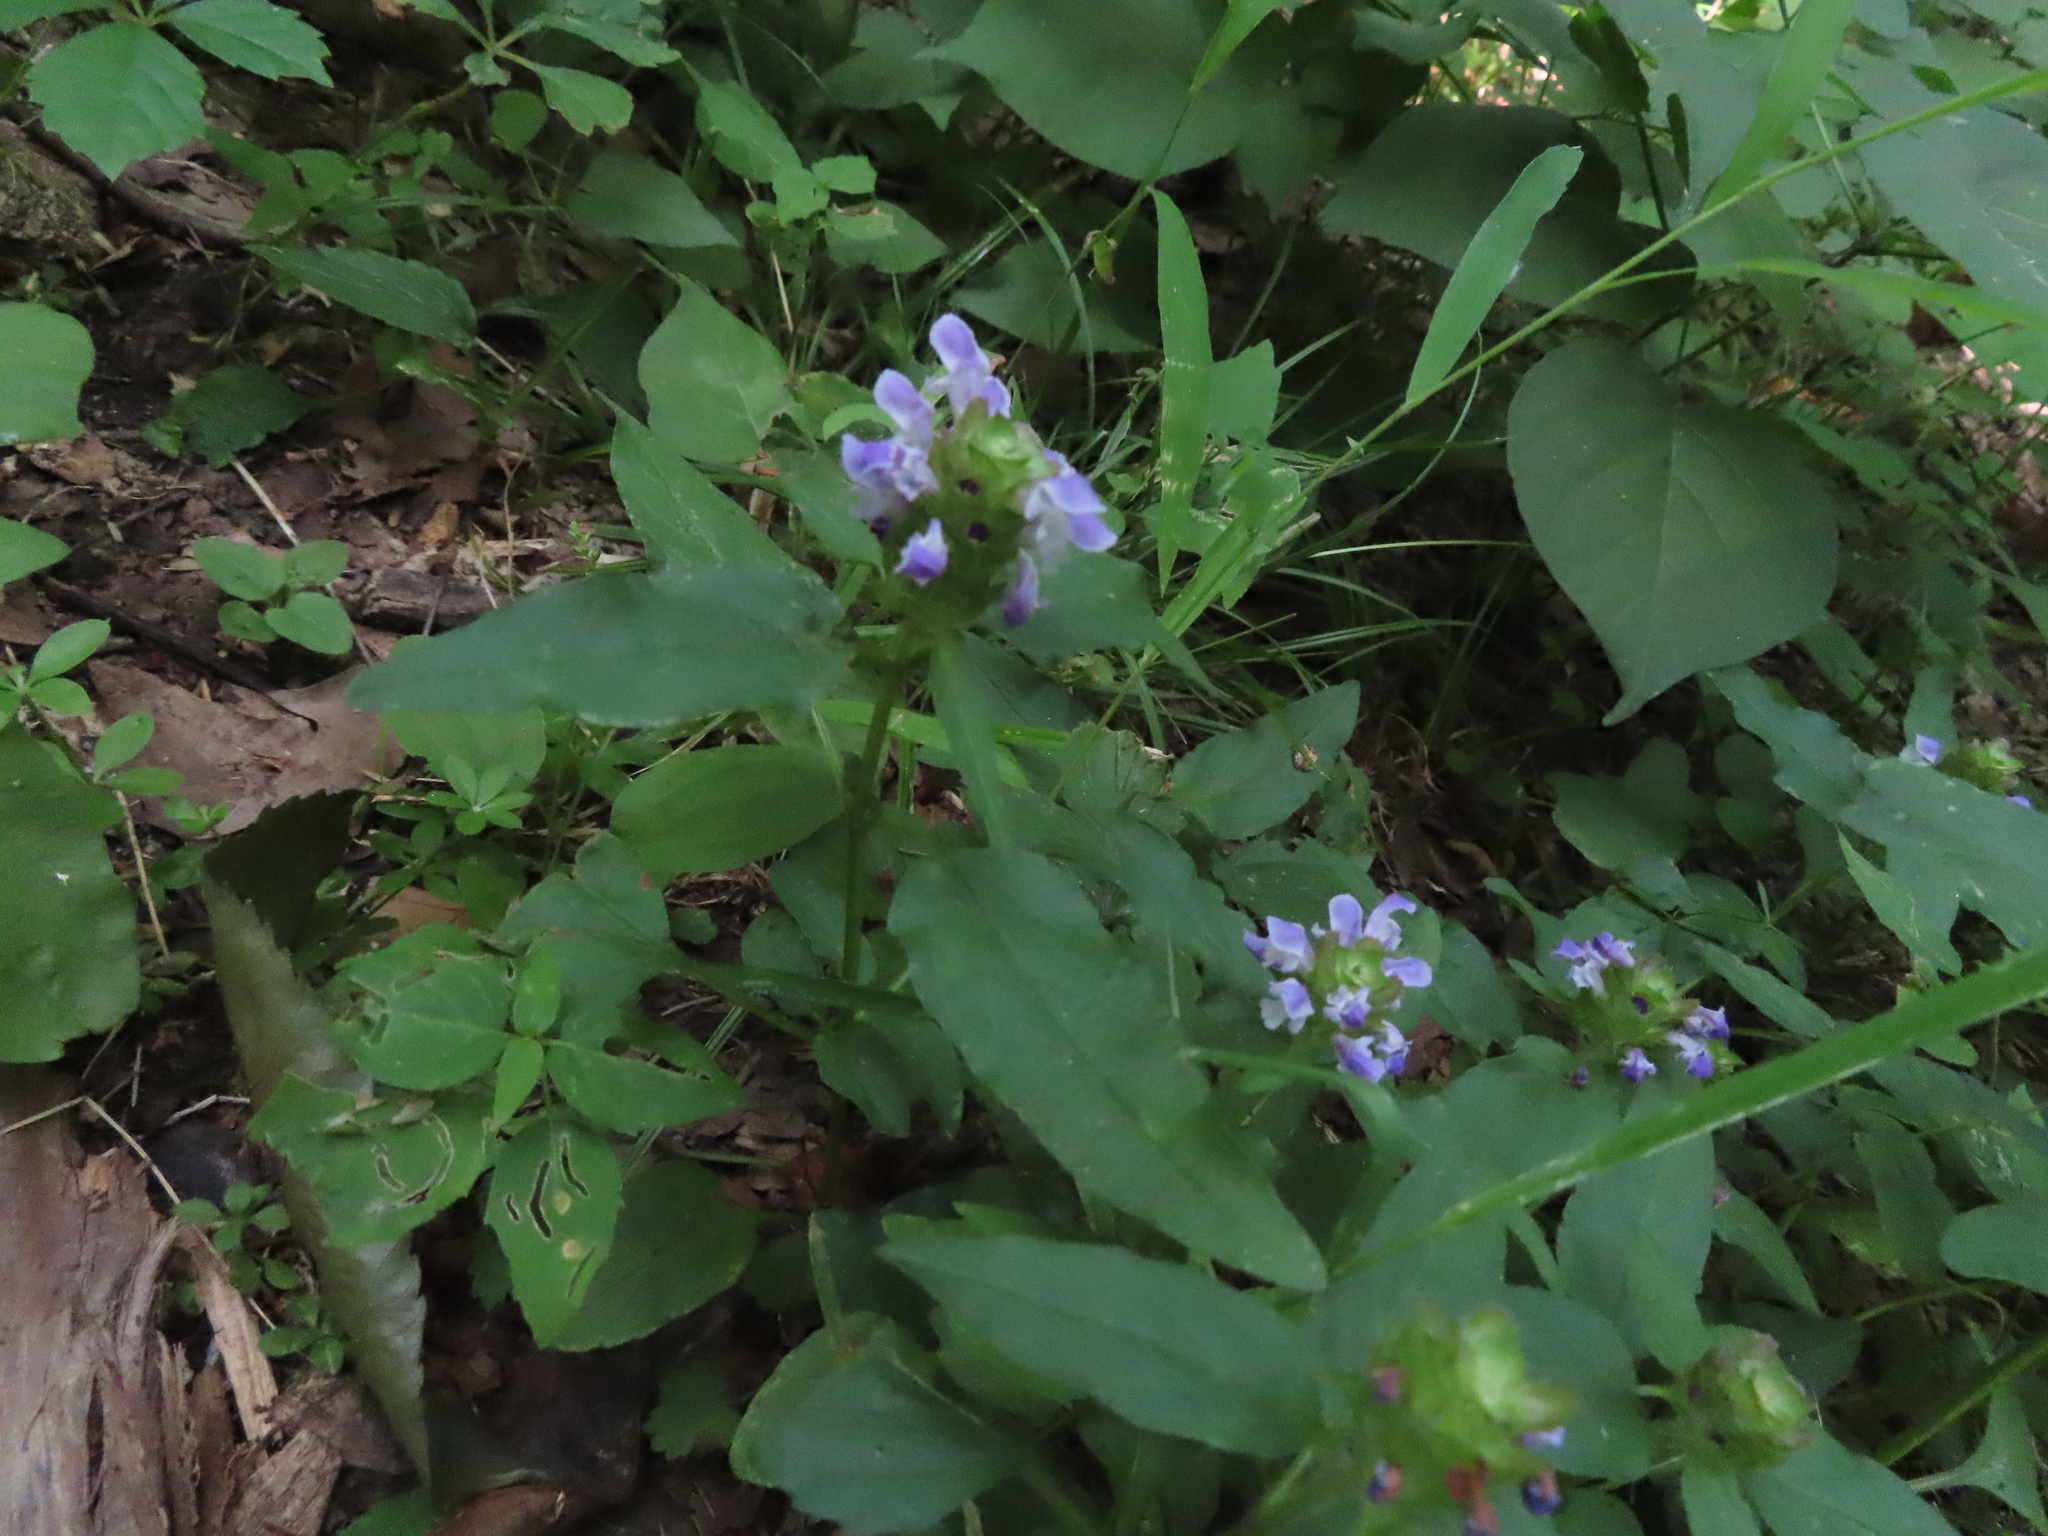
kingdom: Plantae
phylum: Tracheophyta
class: Magnoliopsida
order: Lamiales
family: Lamiaceae
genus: Prunella
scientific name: Prunella vulgaris
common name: Heal-all
